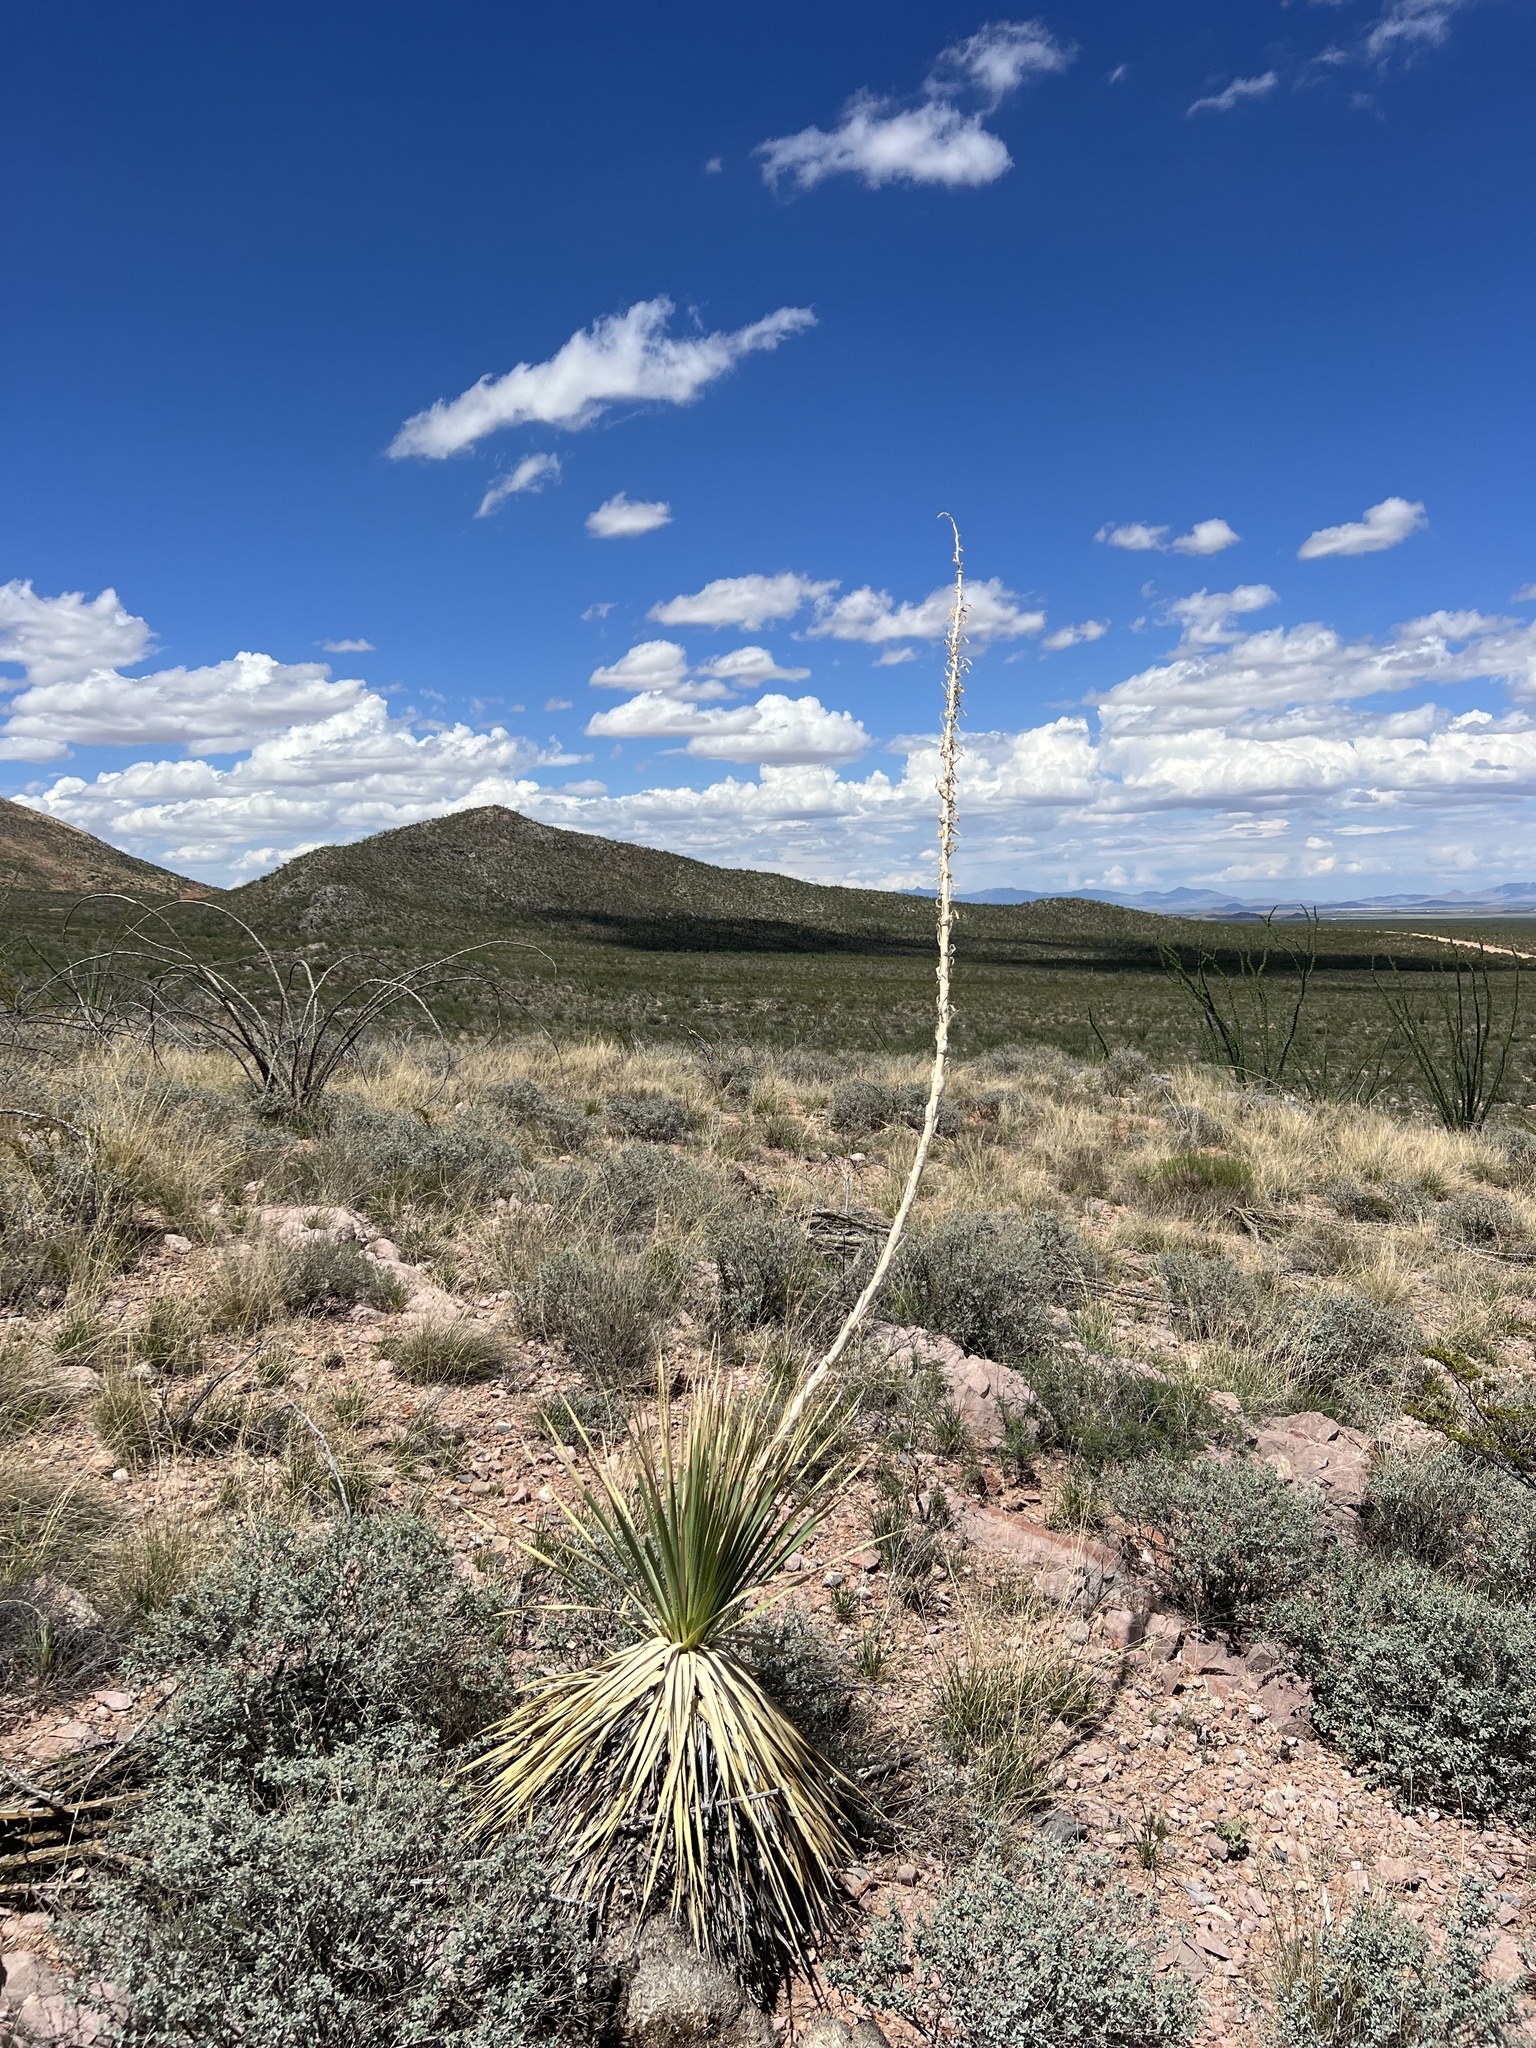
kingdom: Plantae
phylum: Tracheophyta
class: Liliopsida
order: Asparagales
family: Asparagaceae
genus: Dasylirion
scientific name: Dasylirion wheeleri
